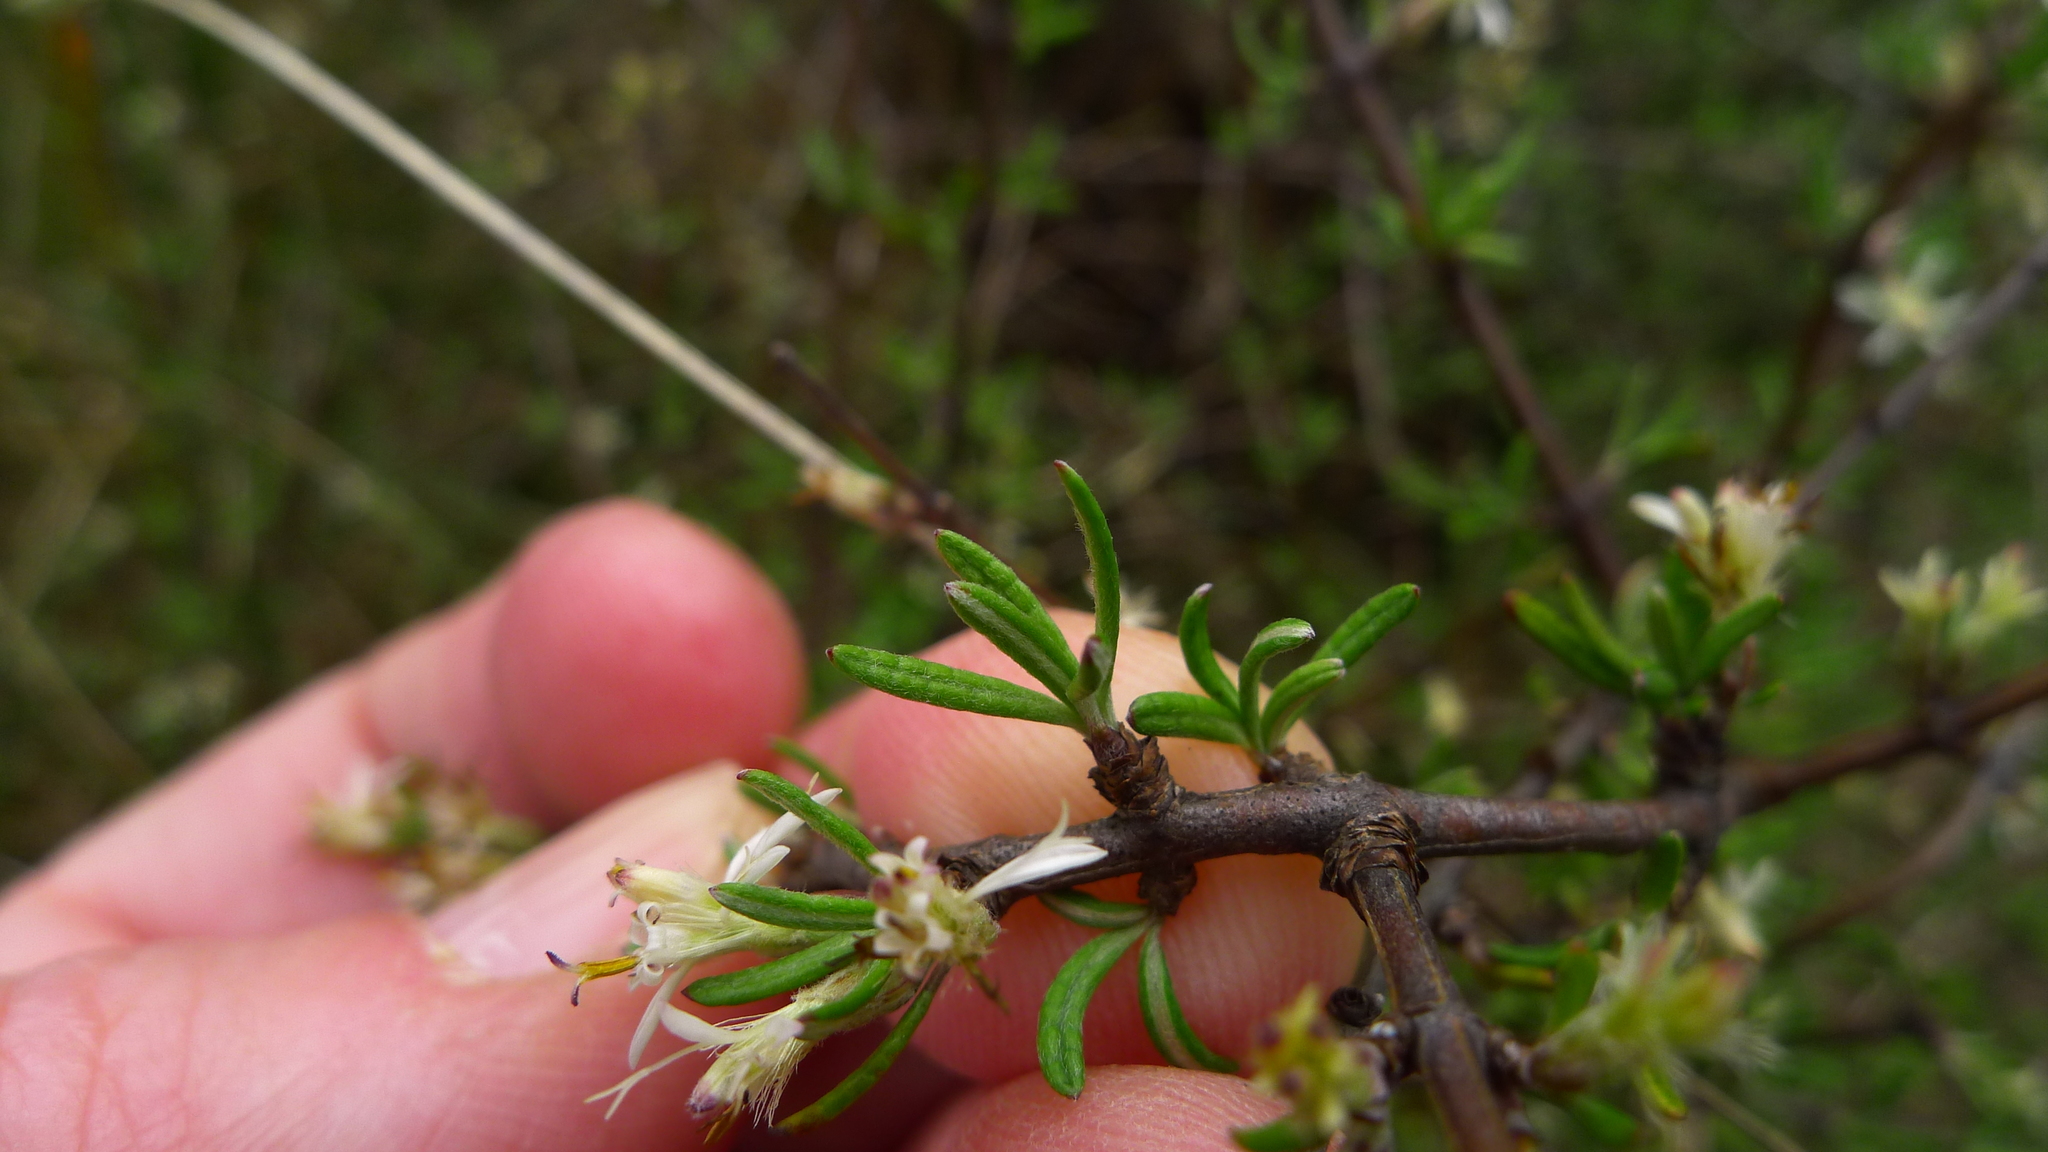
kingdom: Plantae
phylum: Tracheophyta
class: Magnoliopsida
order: Asterales
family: Asteraceae
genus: Olearia
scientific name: Olearia bullata
